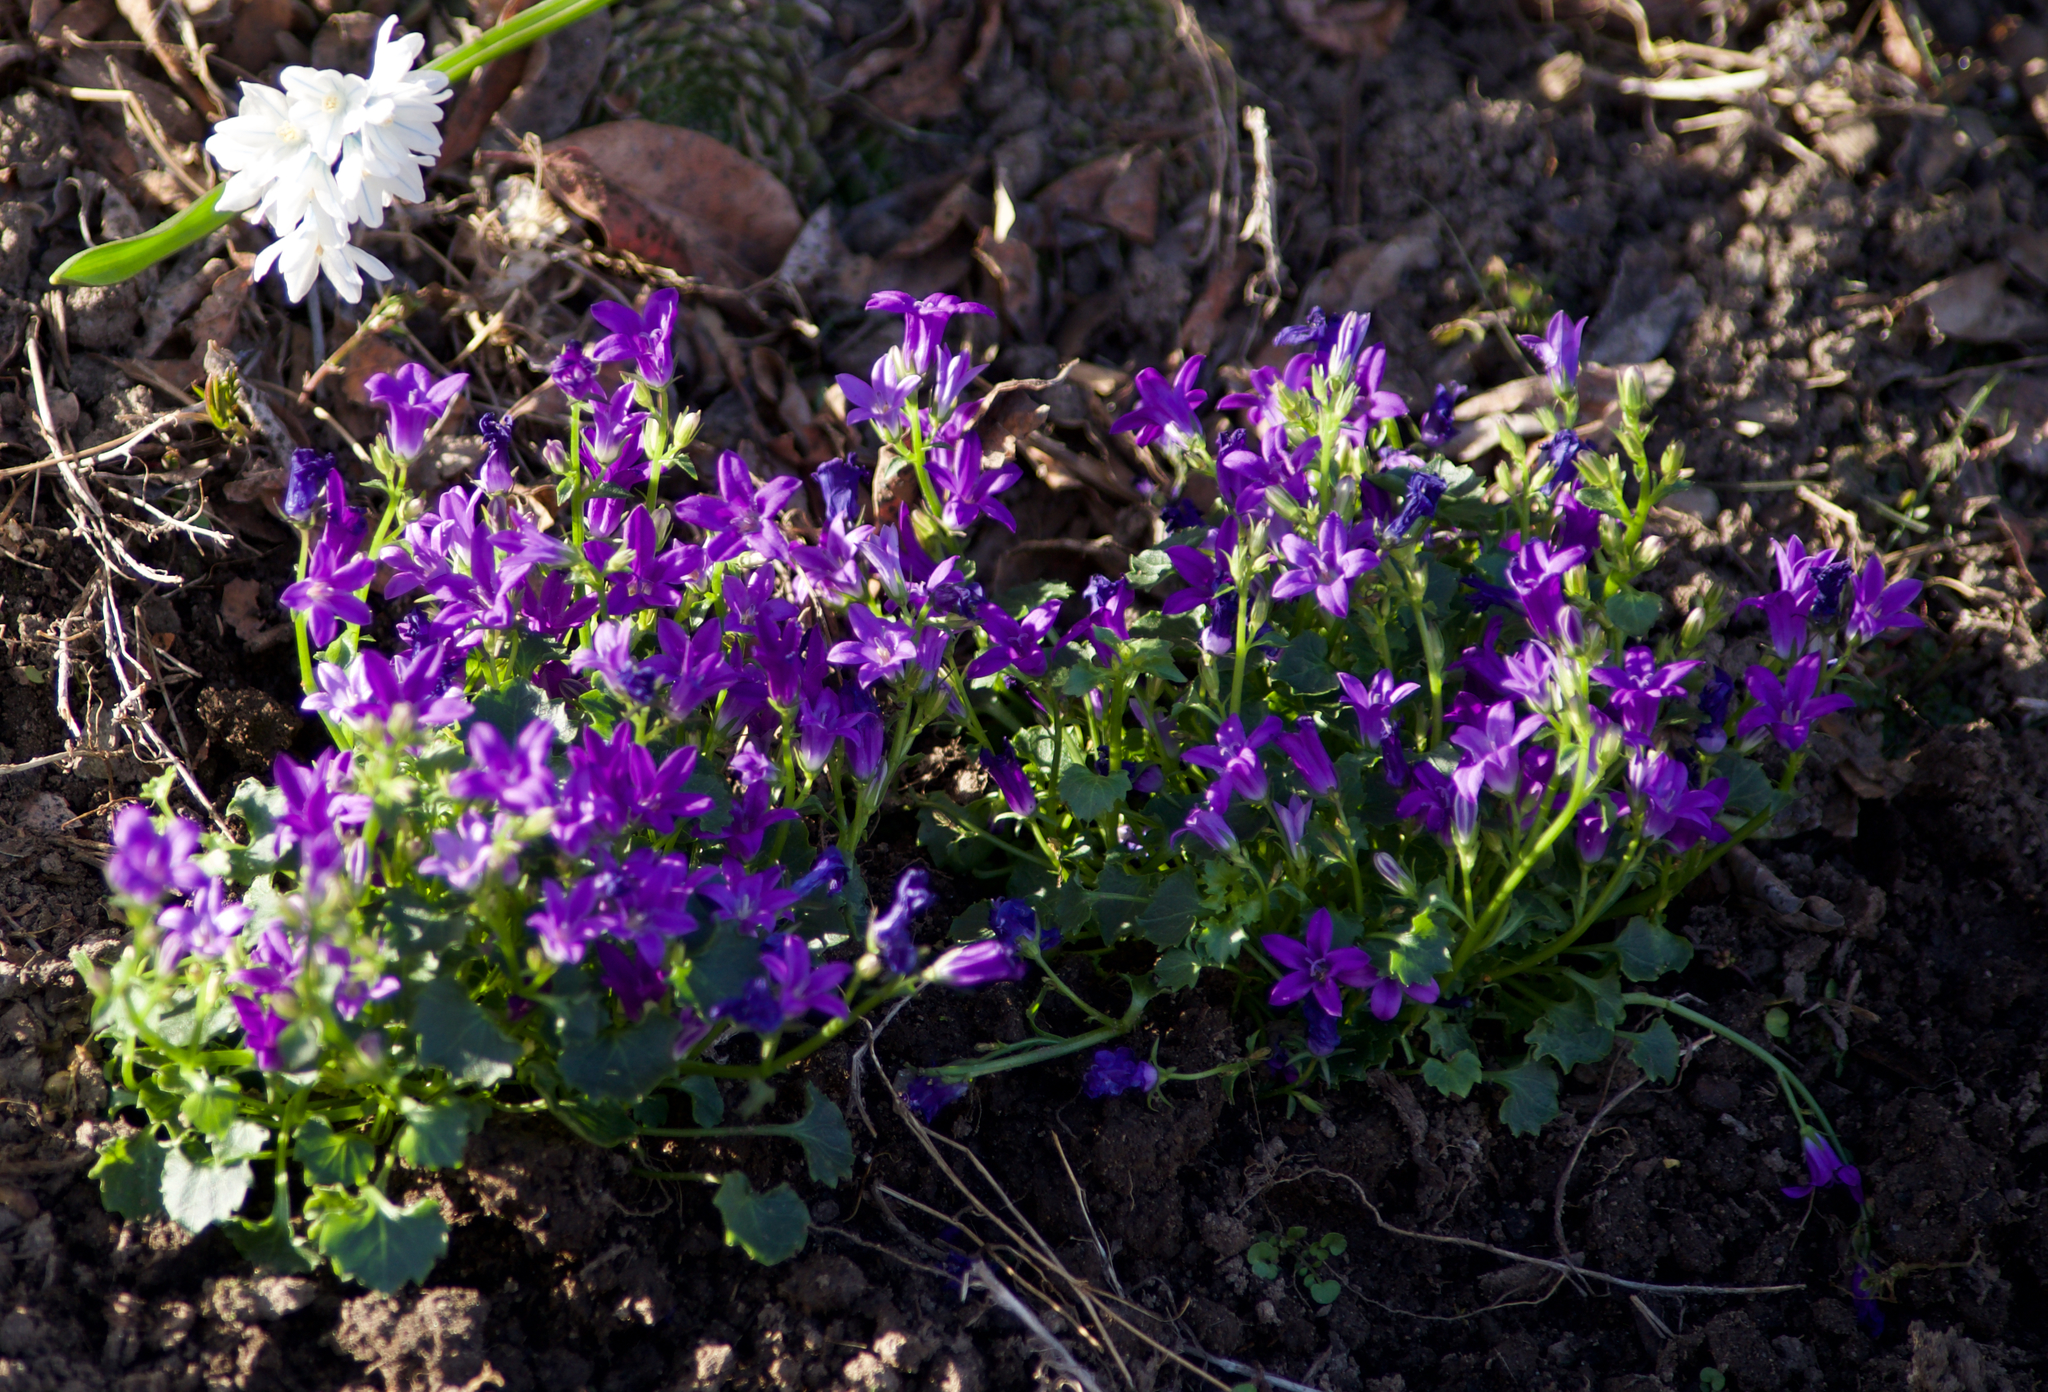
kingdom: Plantae
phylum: Tracheophyta
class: Magnoliopsida
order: Asterales
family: Campanulaceae
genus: Campanula
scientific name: Campanula poscharskyana
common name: Trailing bellflower
